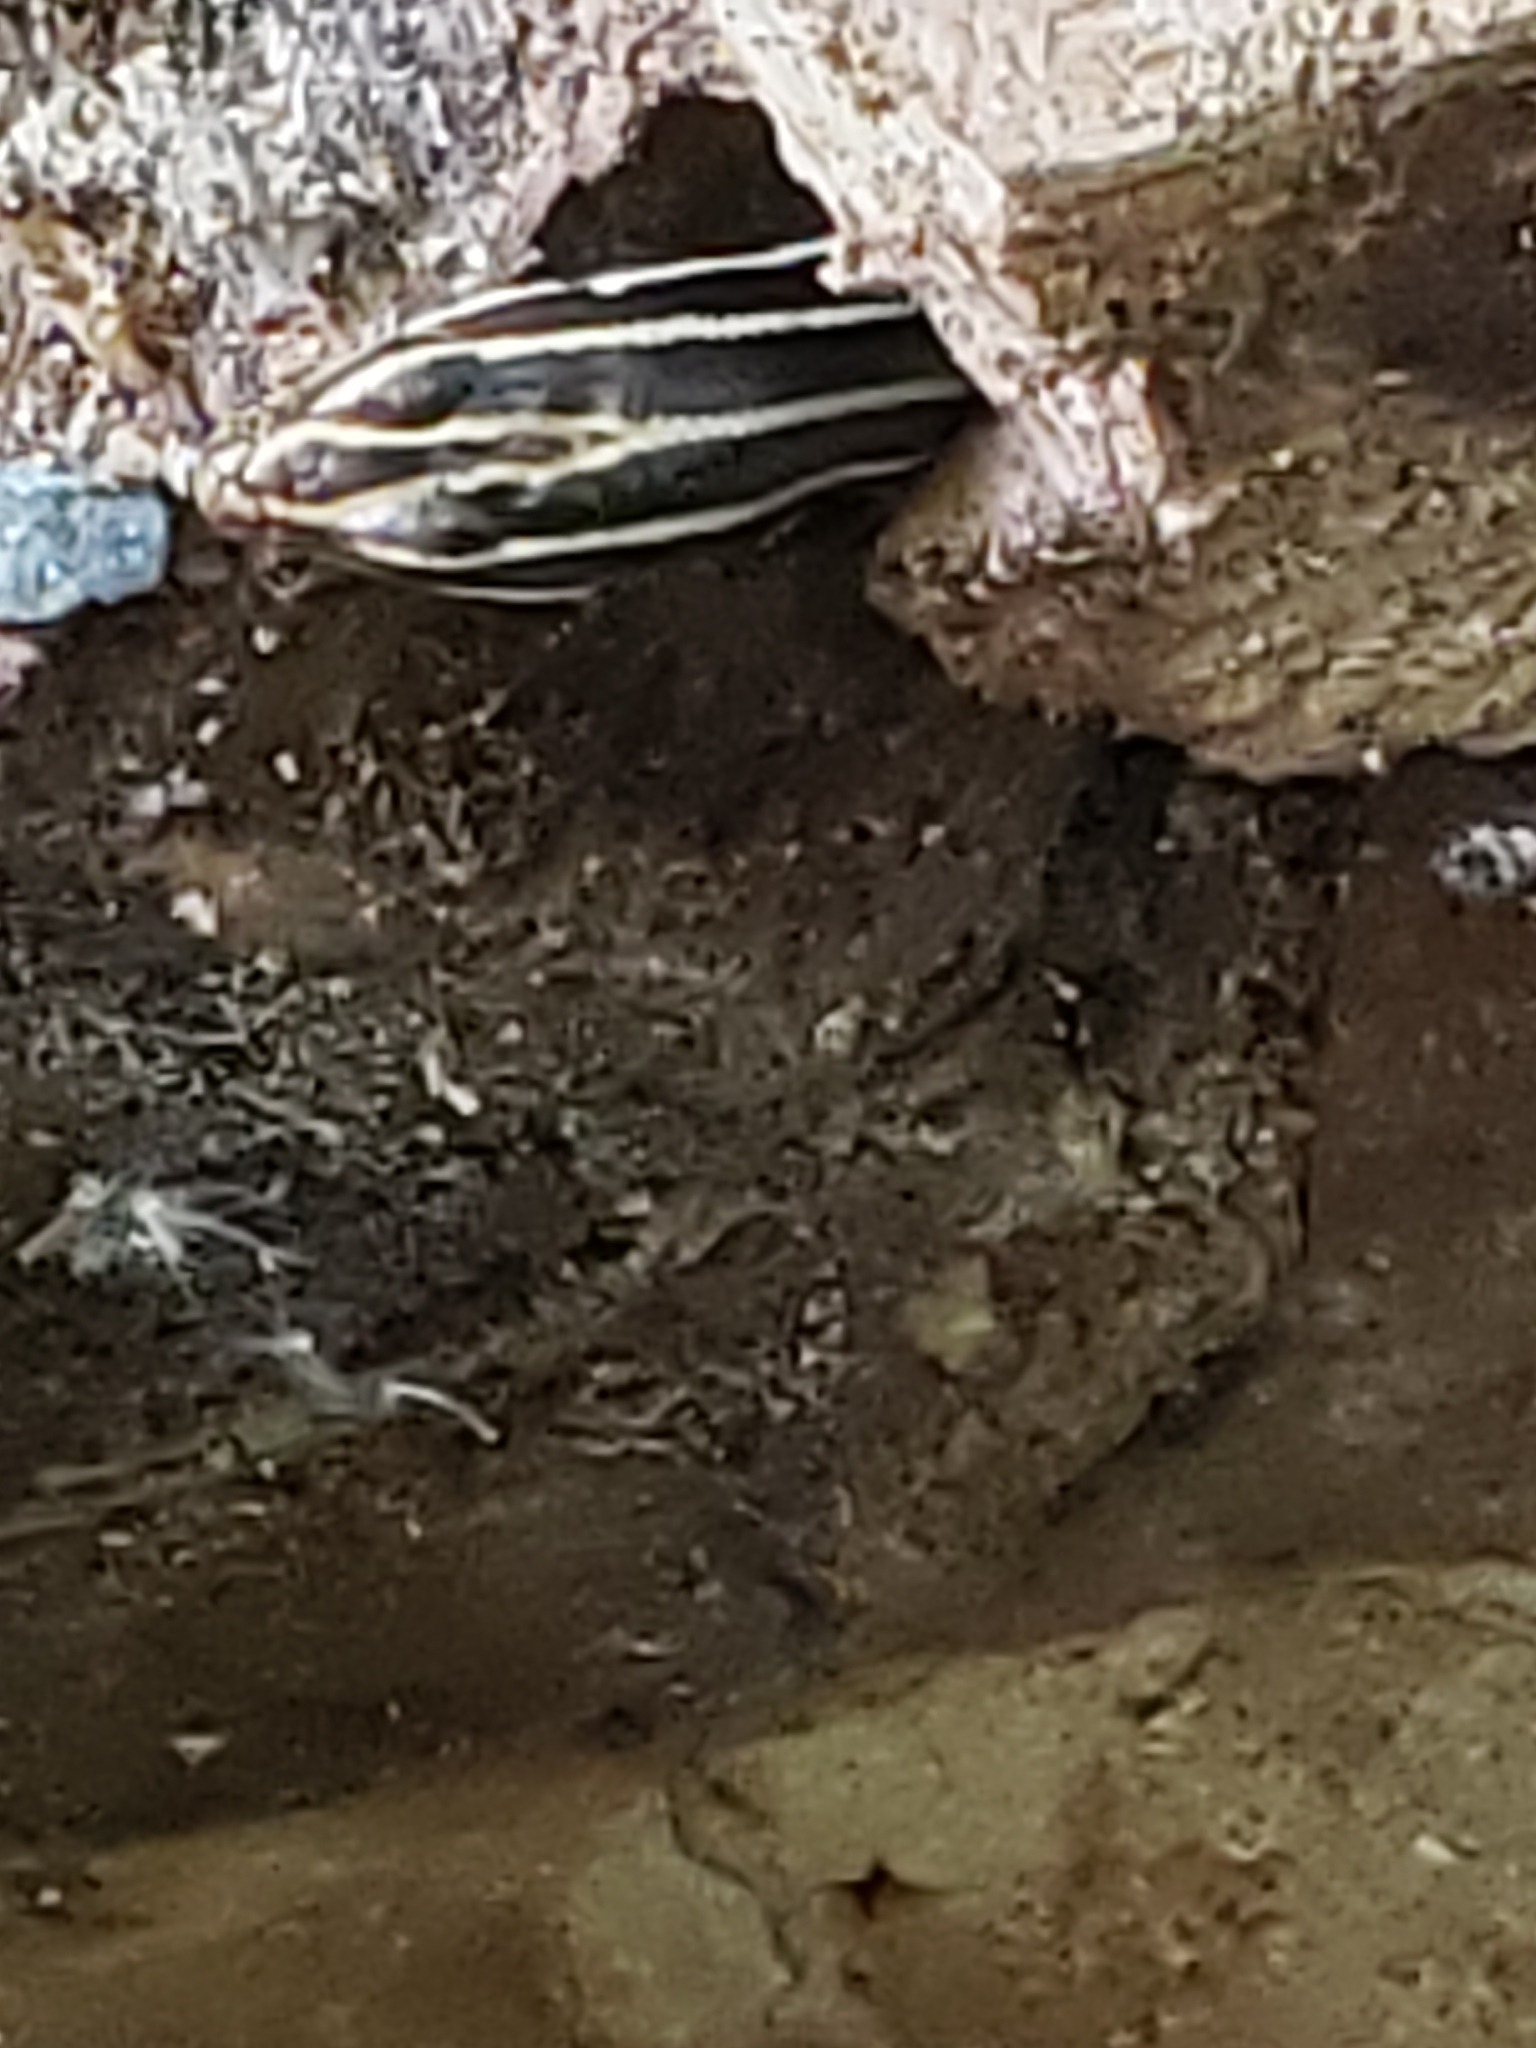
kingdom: Animalia
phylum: Chordata
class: Squamata
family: Scincidae
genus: Plestiodon
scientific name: Plestiodon fasciatus
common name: Five-lined skink
